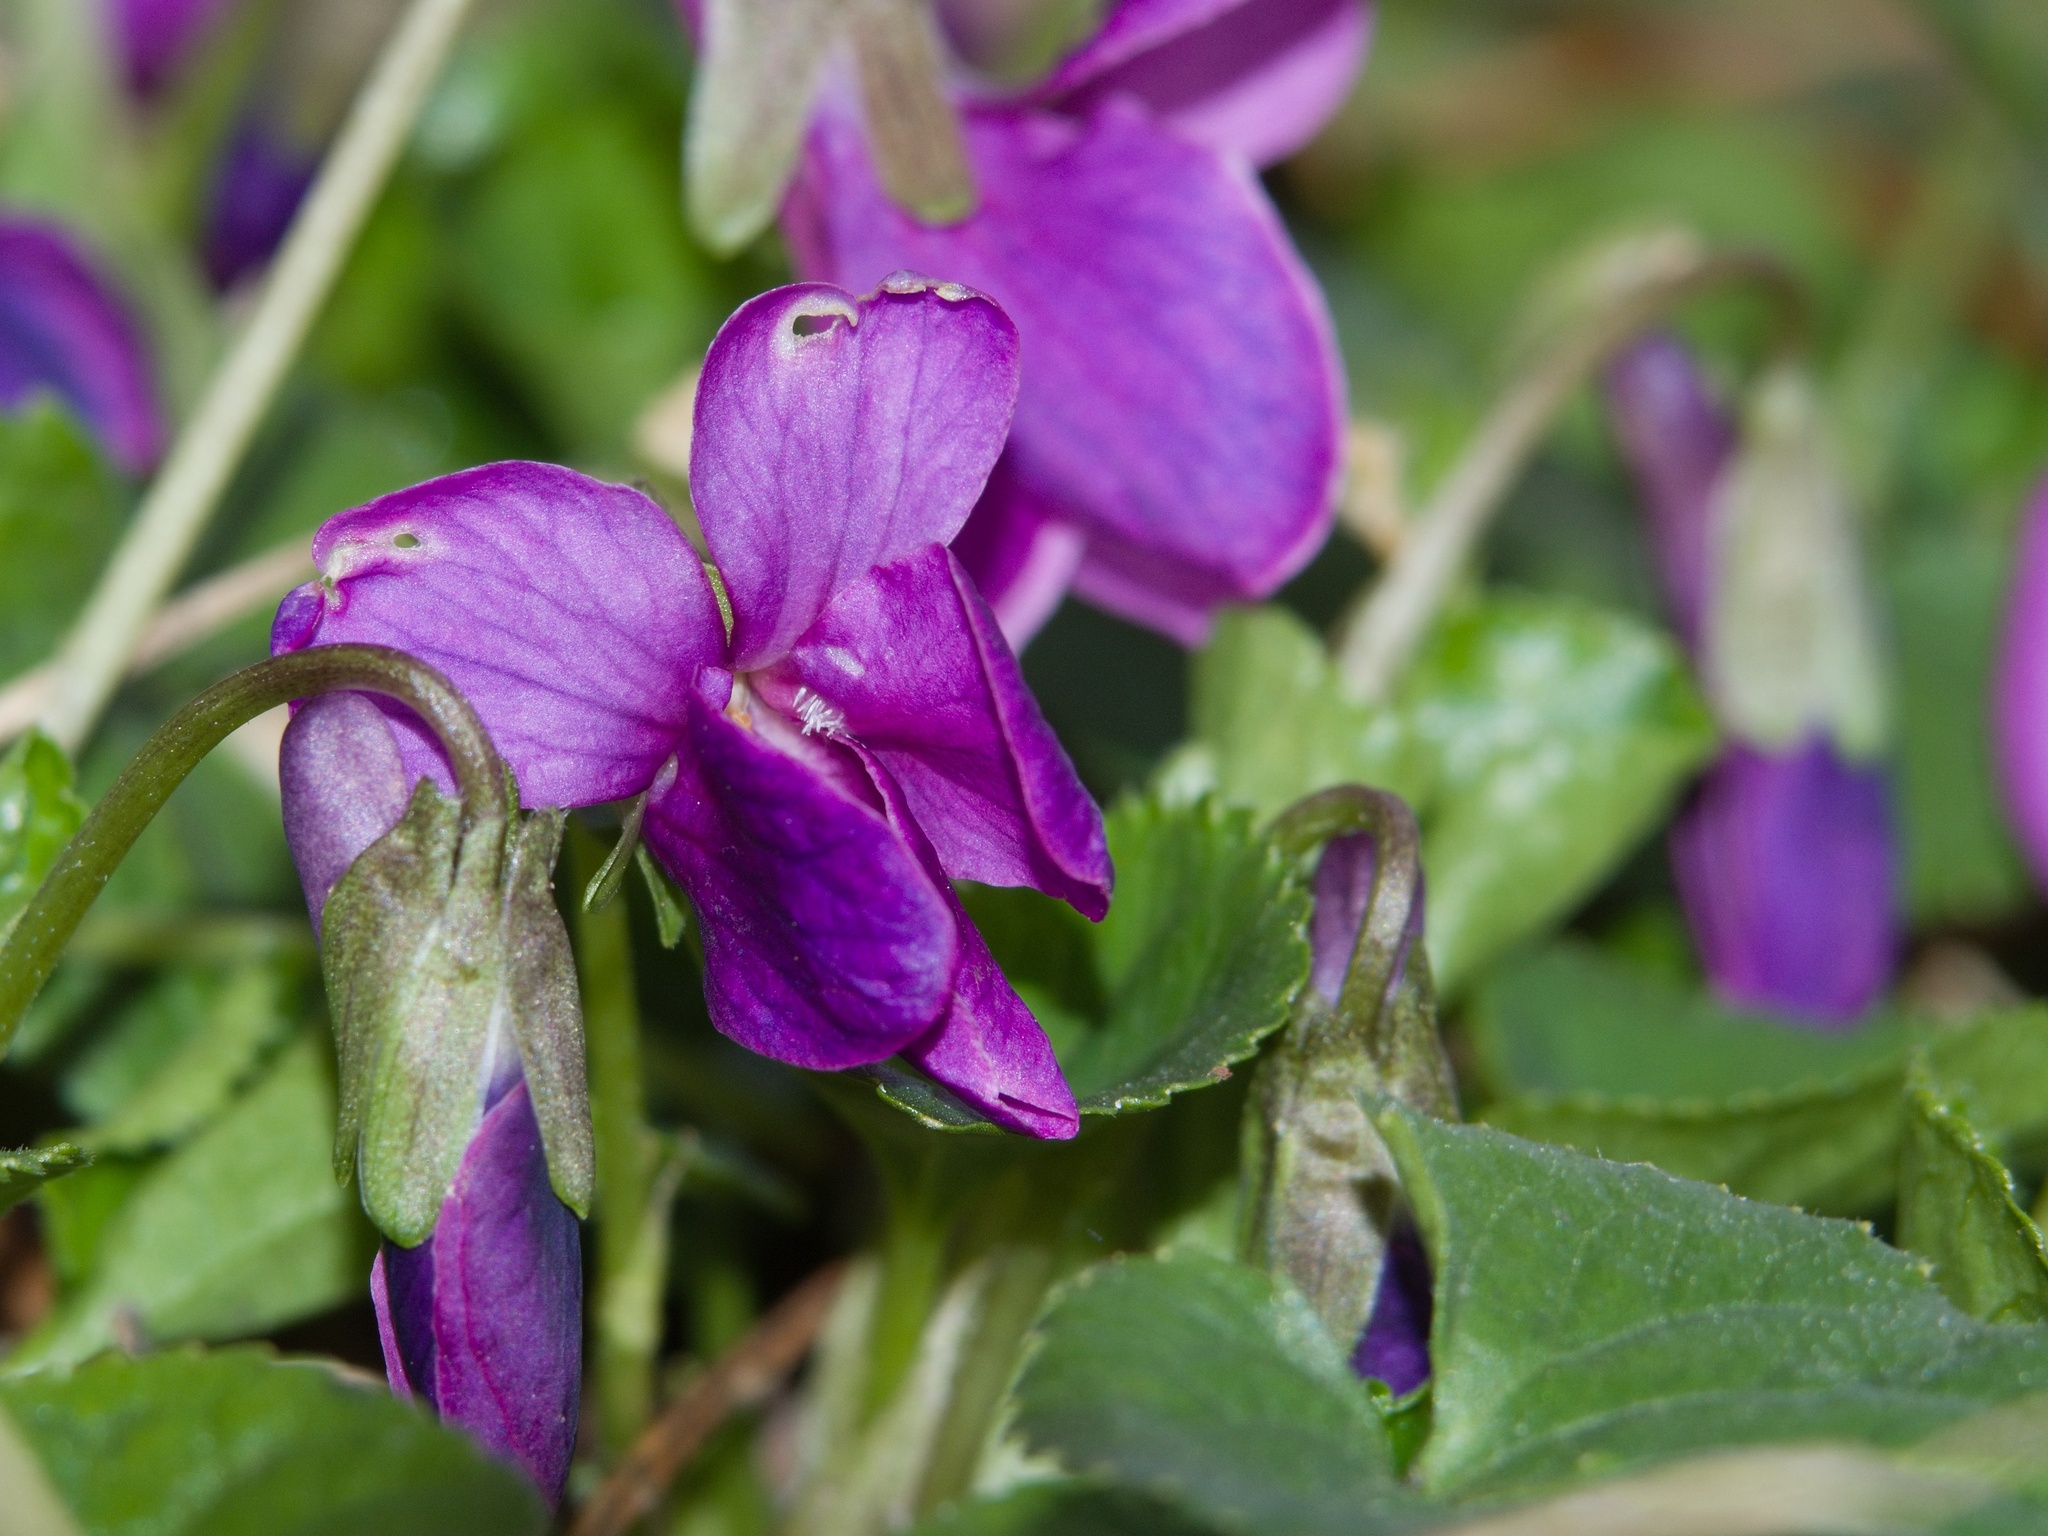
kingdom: Plantae
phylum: Tracheophyta
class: Magnoliopsida
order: Malpighiales
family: Violaceae
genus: Viola
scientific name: Viola odorata
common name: Sweet violet
